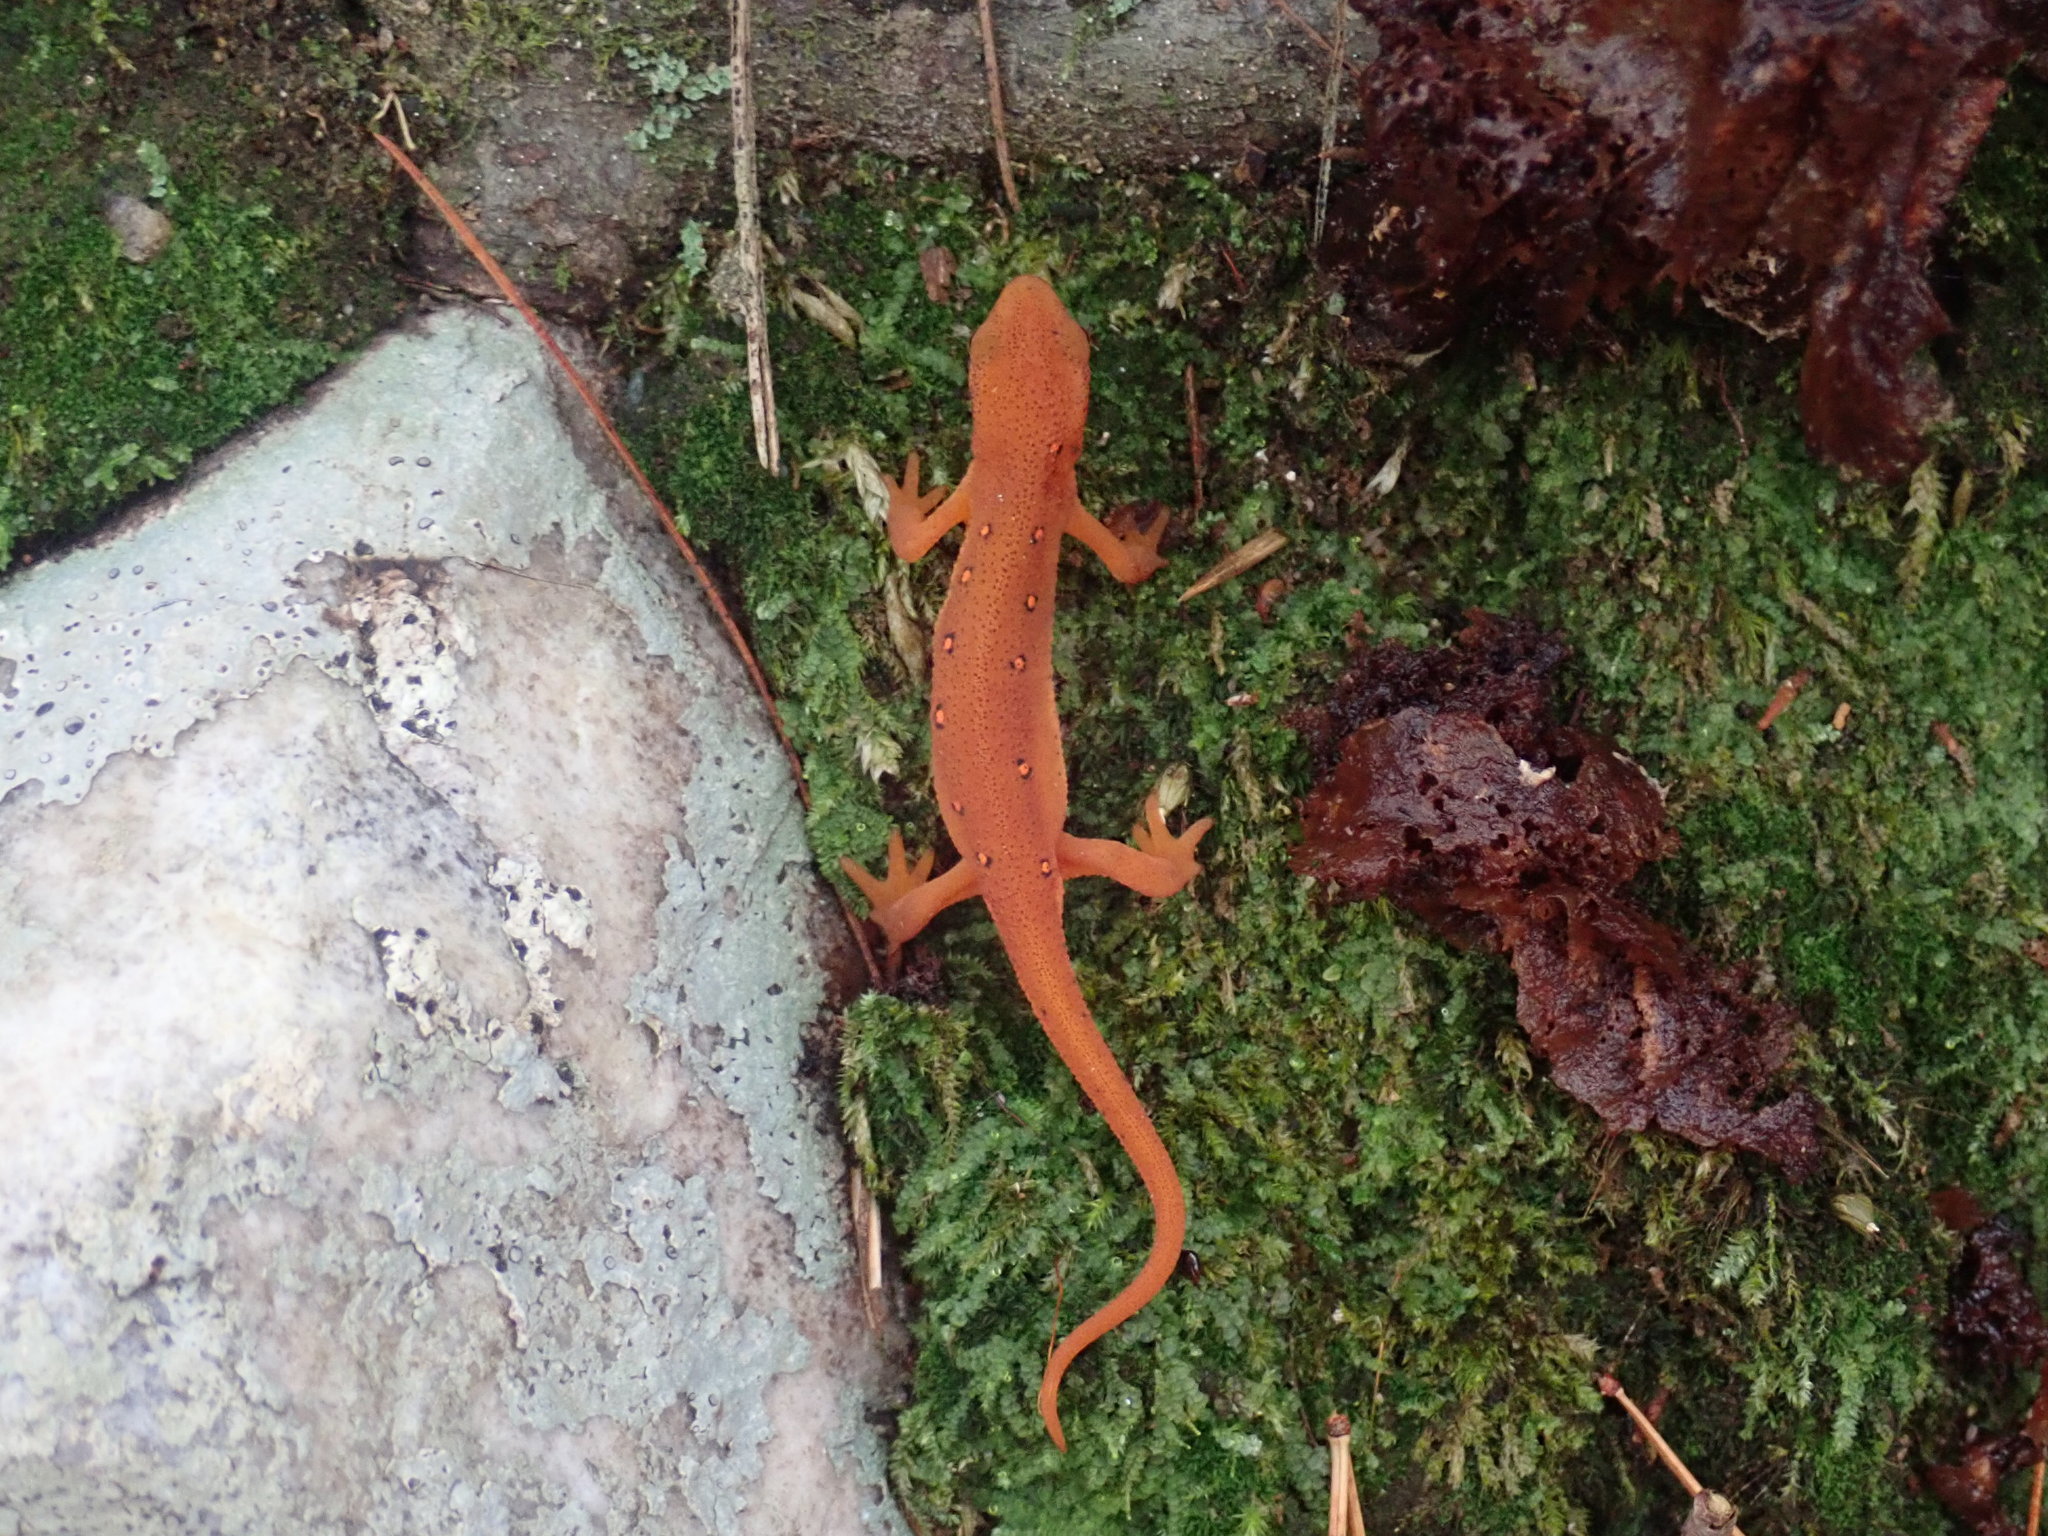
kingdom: Animalia
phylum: Chordata
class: Amphibia
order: Caudata
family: Salamandridae
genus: Notophthalmus
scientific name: Notophthalmus viridescens
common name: Eastern newt
